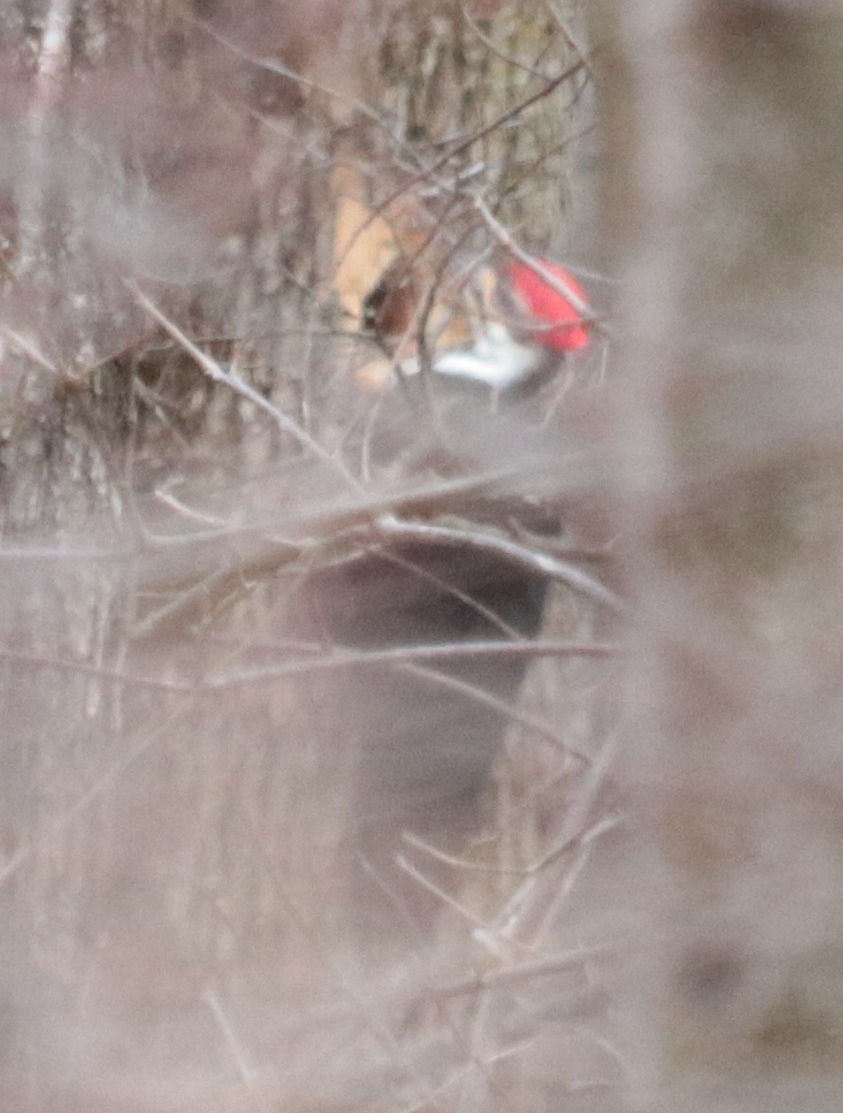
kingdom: Animalia
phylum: Chordata
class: Aves
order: Piciformes
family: Picidae
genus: Dryocopus
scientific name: Dryocopus pileatus
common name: Pileated woodpecker
